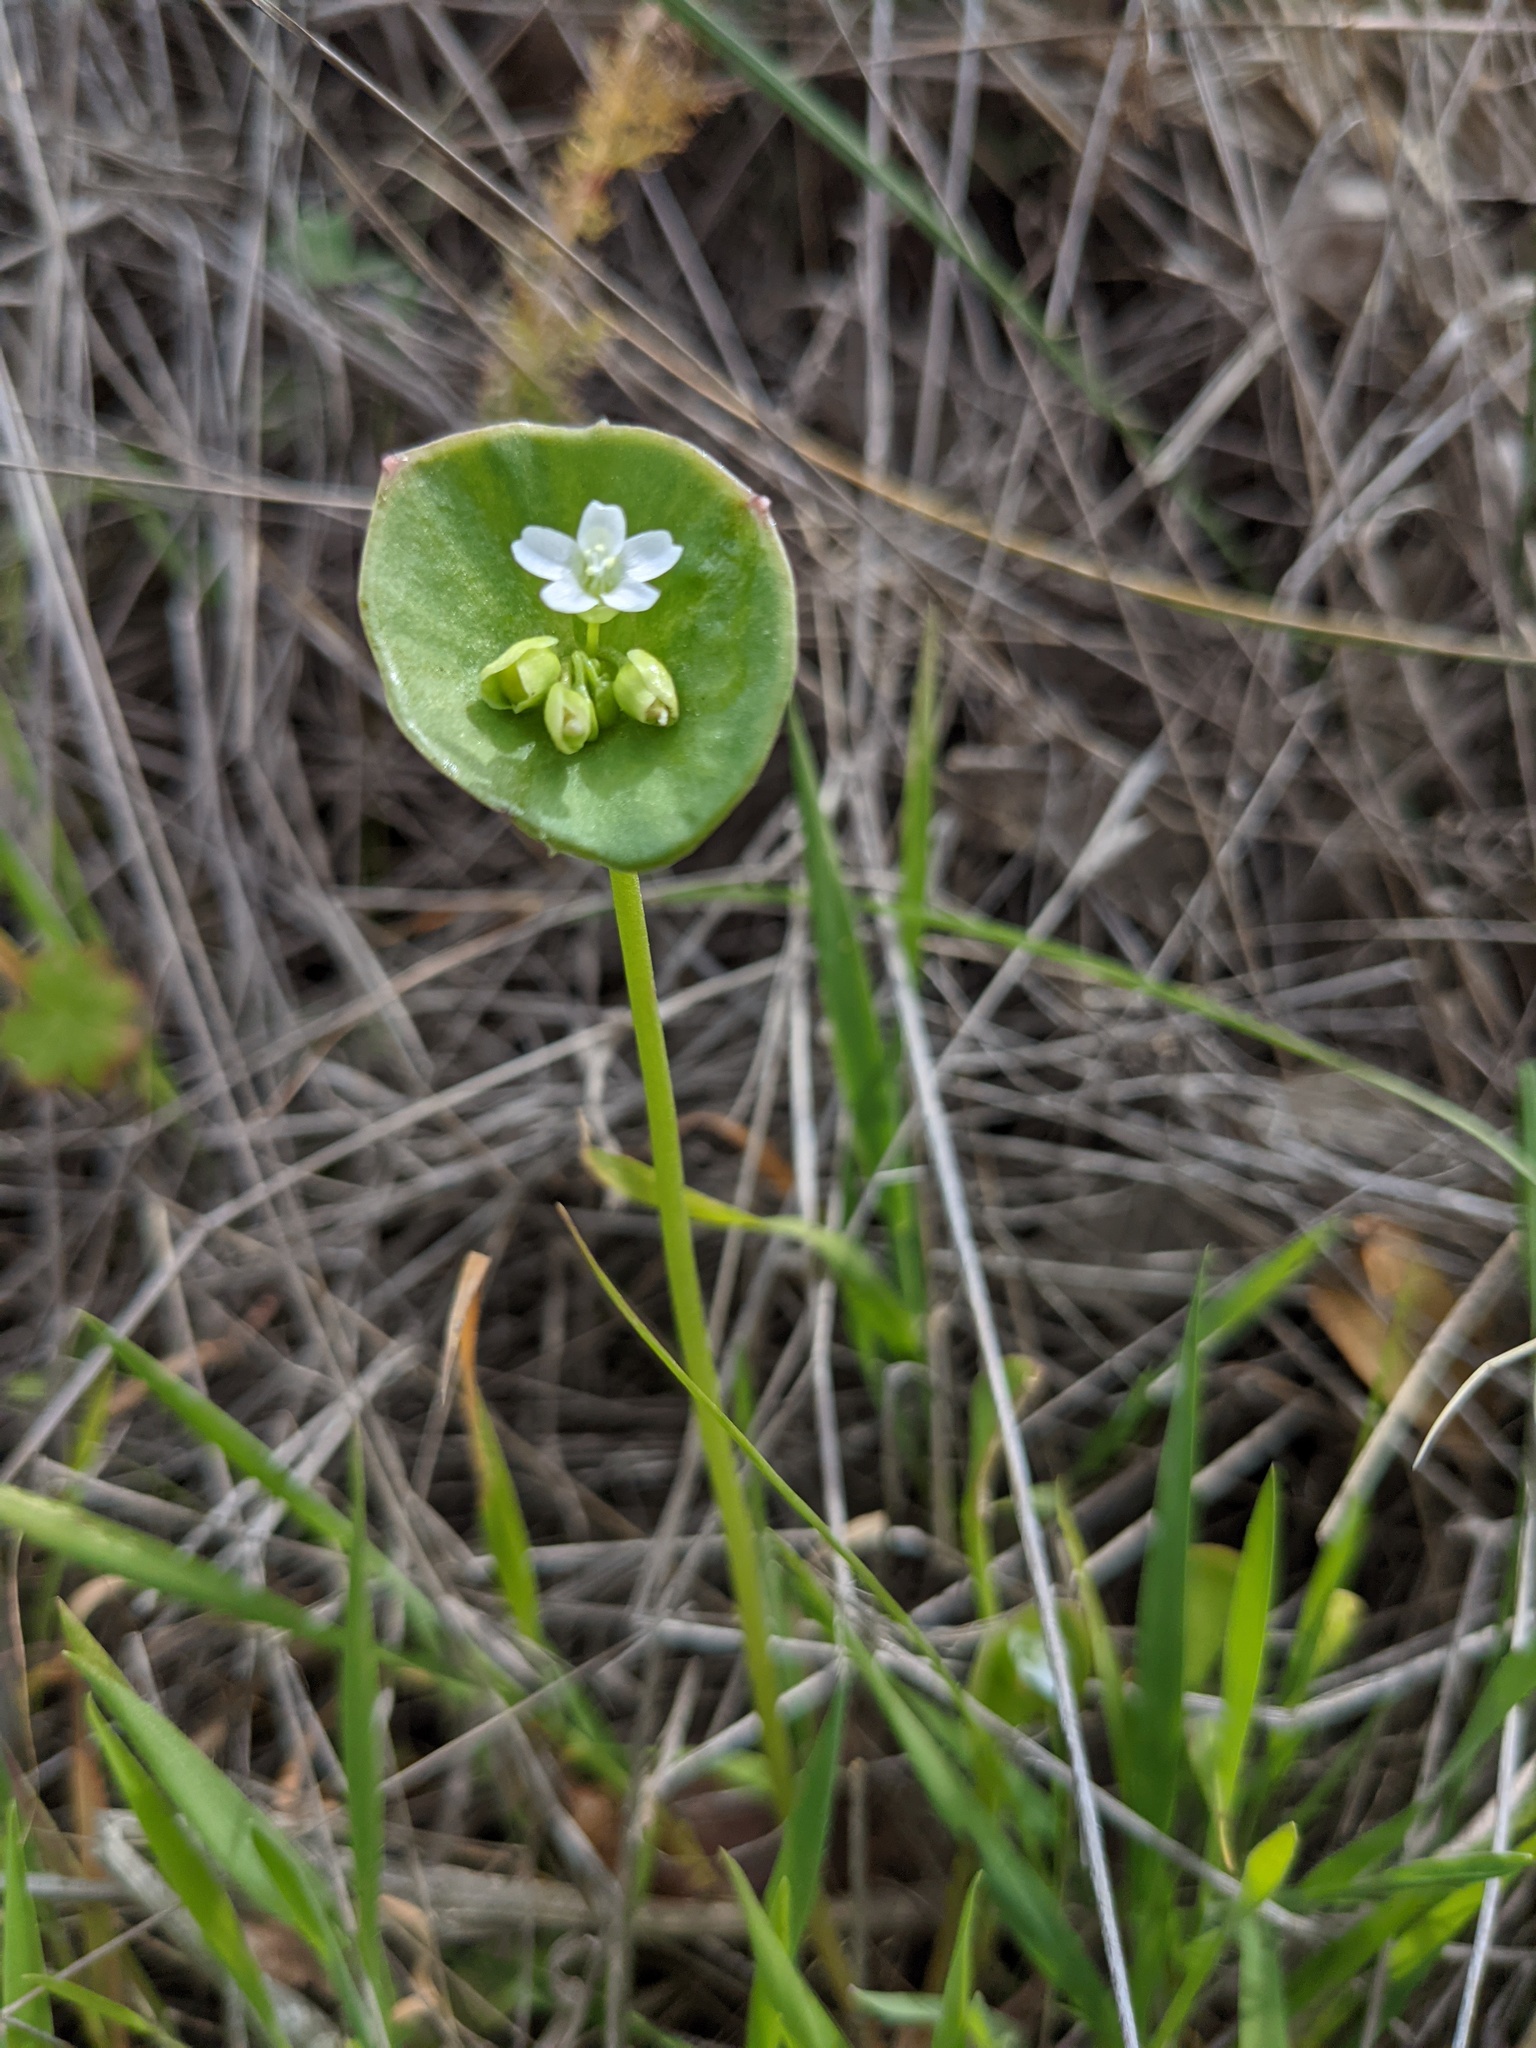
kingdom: Plantae
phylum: Tracheophyta
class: Magnoliopsida
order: Caryophyllales
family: Montiaceae
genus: Claytonia
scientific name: Claytonia perfoliata
